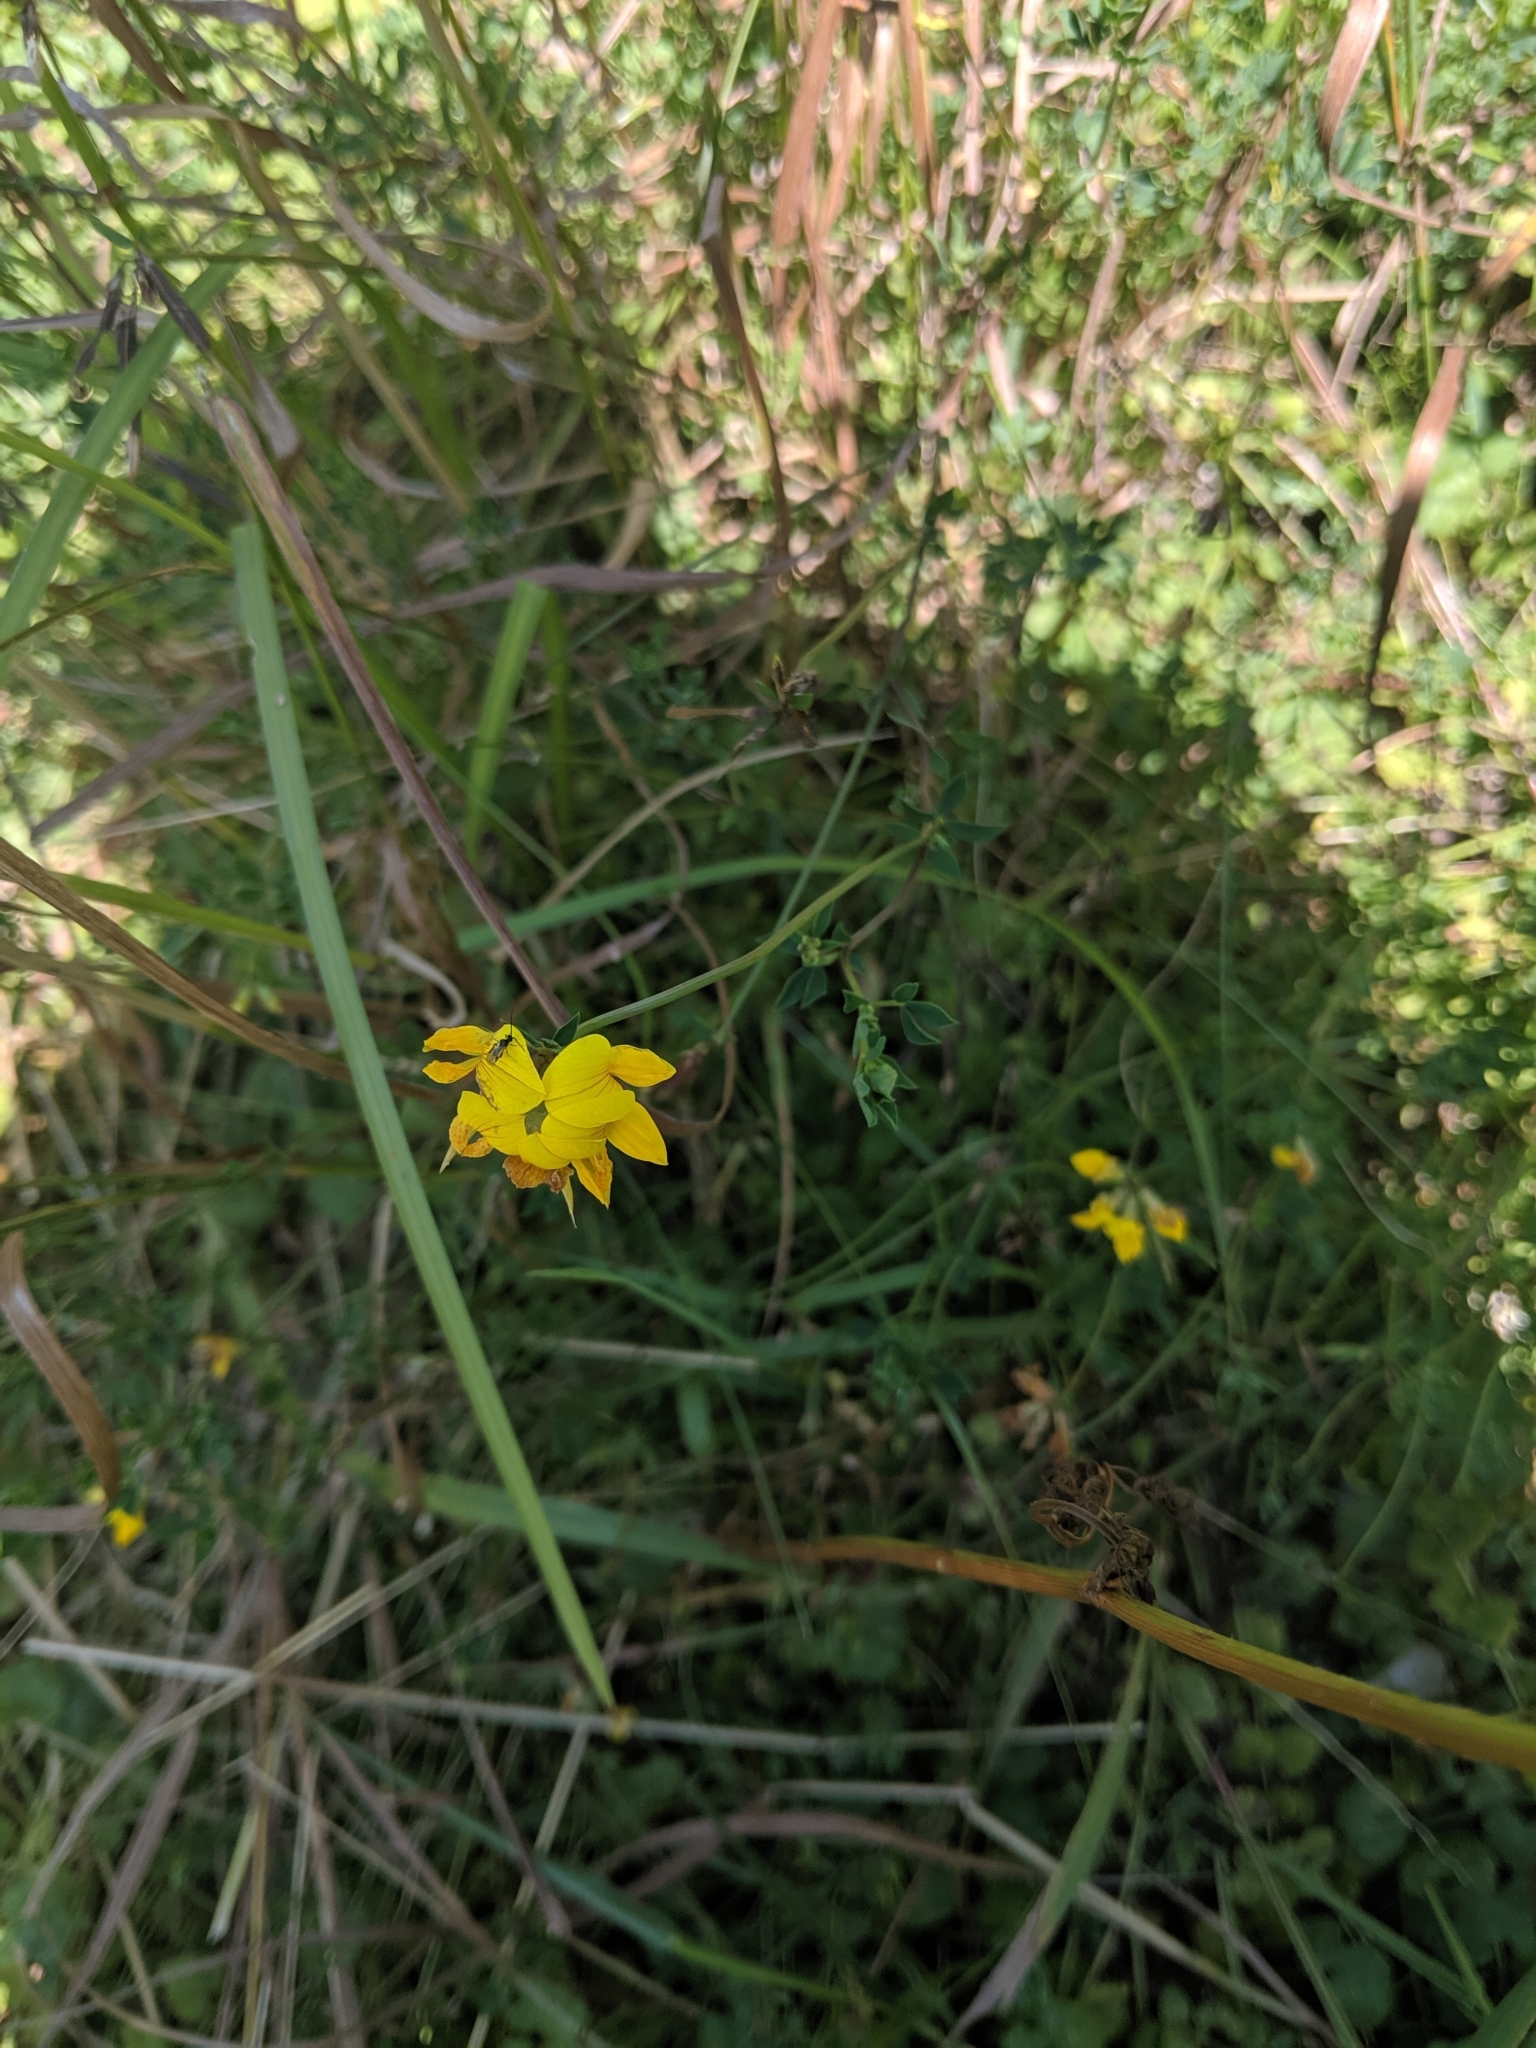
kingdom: Plantae
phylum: Tracheophyta
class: Magnoliopsida
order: Fabales
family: Fabaceae
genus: Lotus
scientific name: Lotus corniculatus
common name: Common bird's-foot-trefoil
